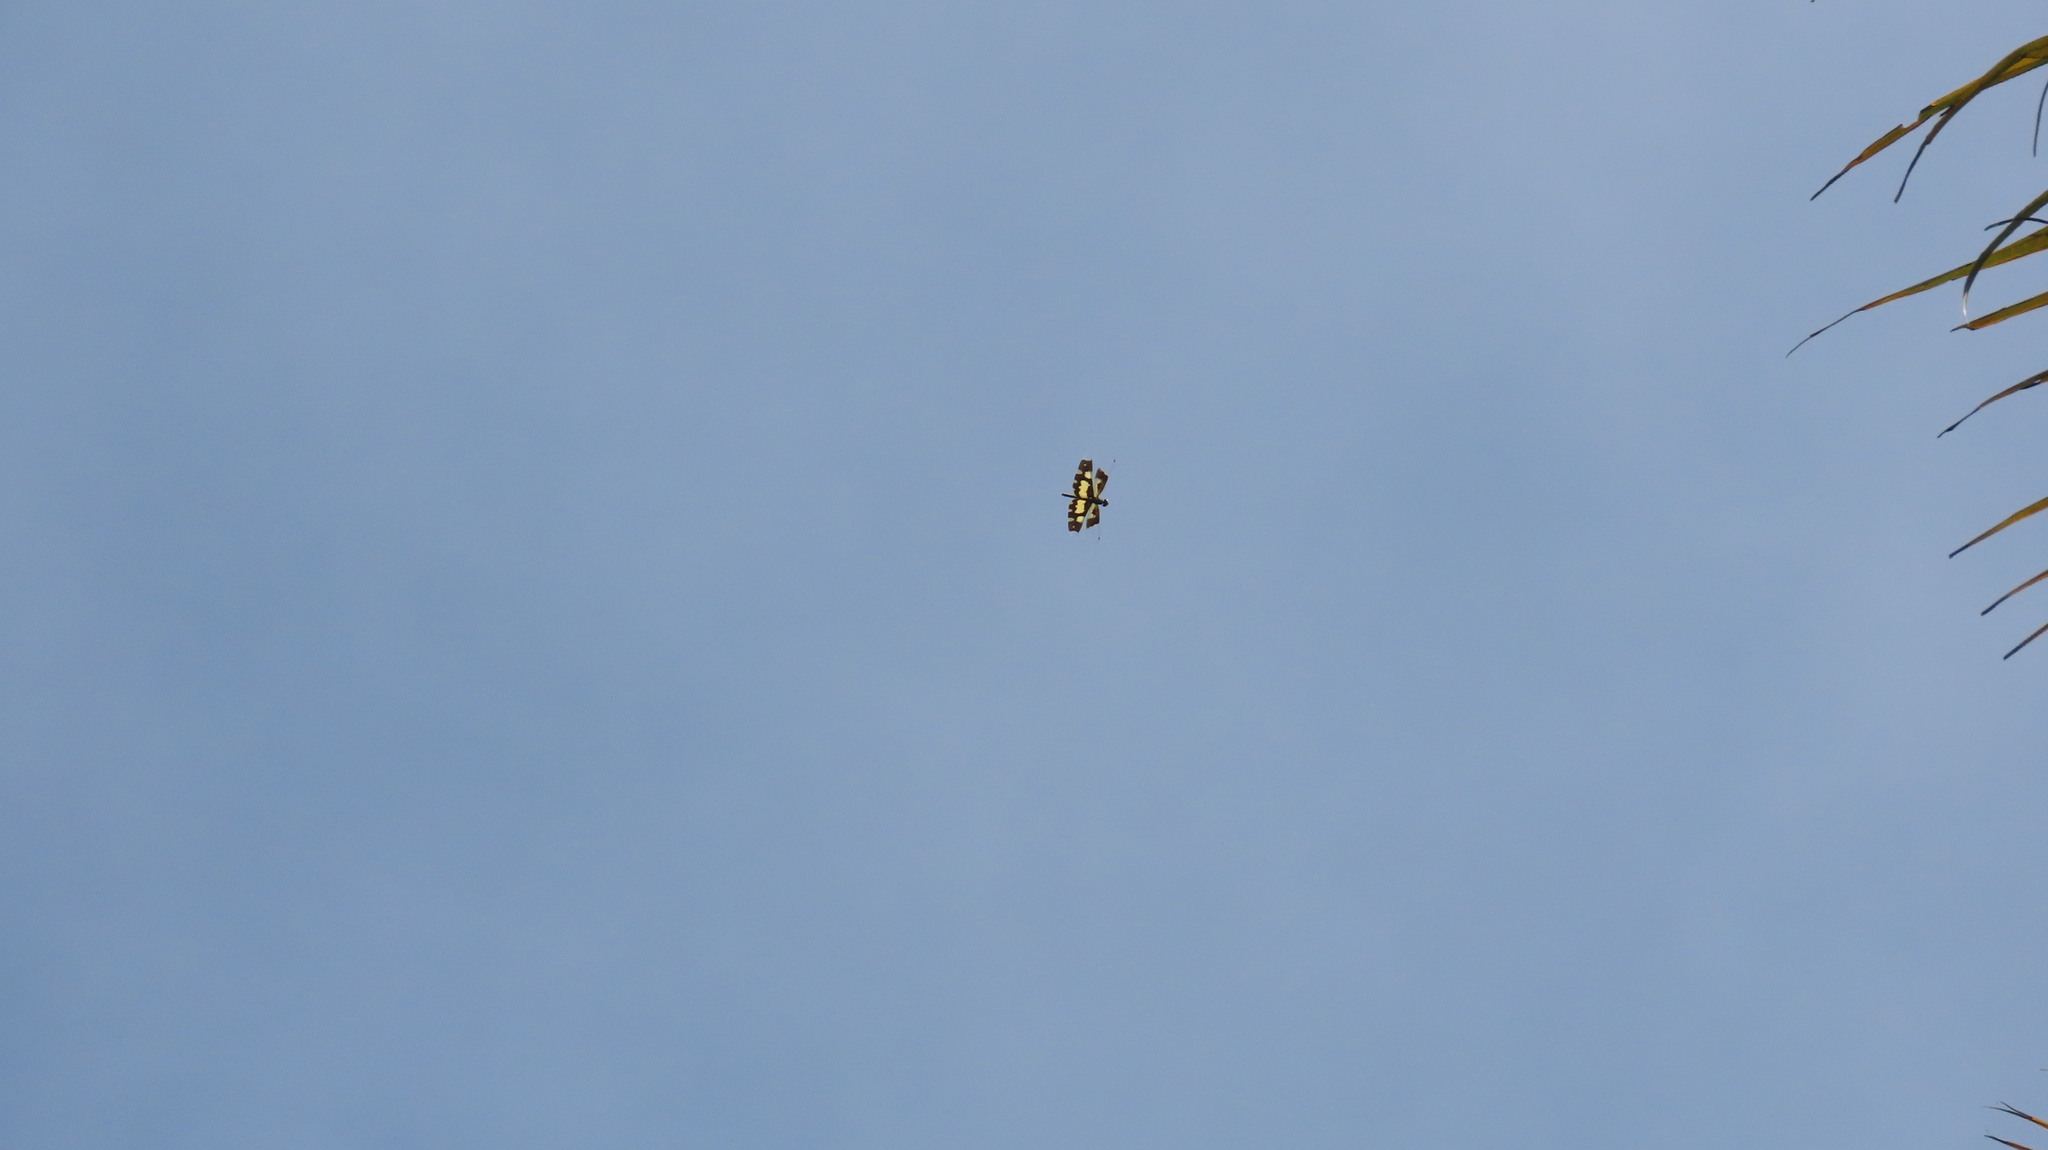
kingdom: Animalia
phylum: Arthropoda
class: Insecta
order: Odonata
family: Libellulidae
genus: Rhyothemis
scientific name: Rhyothemis variegata
